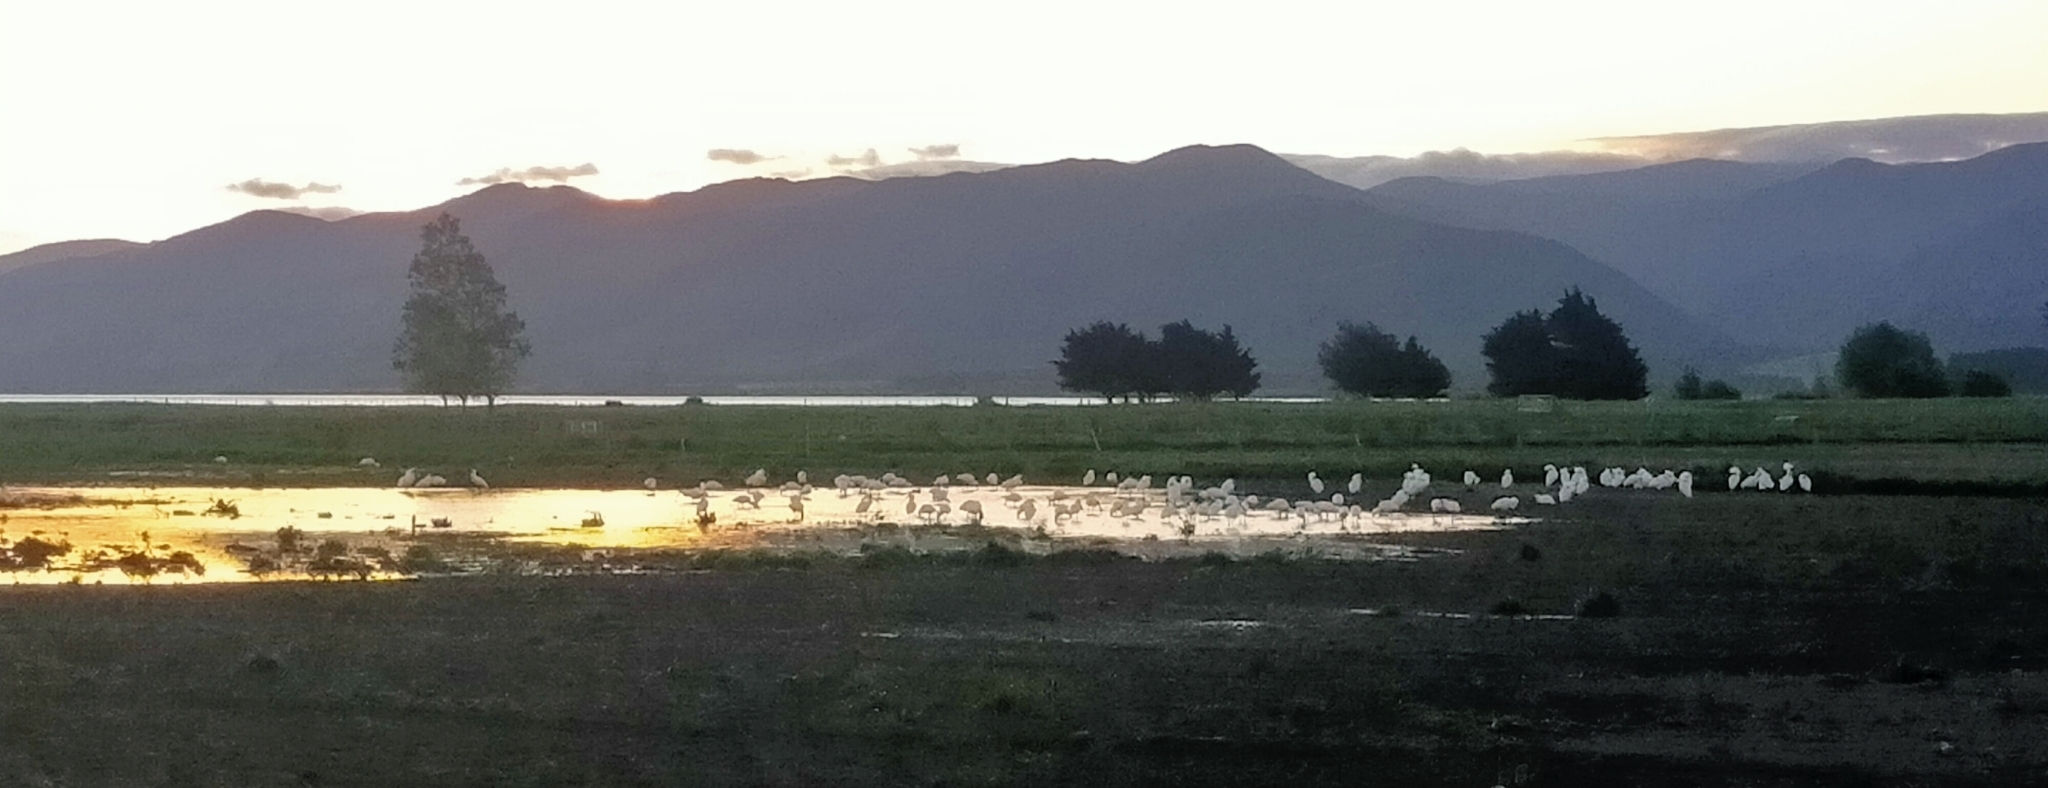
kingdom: Animalia
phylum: Chordata
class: Aves
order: Pelecaniformes
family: Threskiornithidae
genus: Platalea
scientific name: Platalea regia
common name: Royal spoonbill
